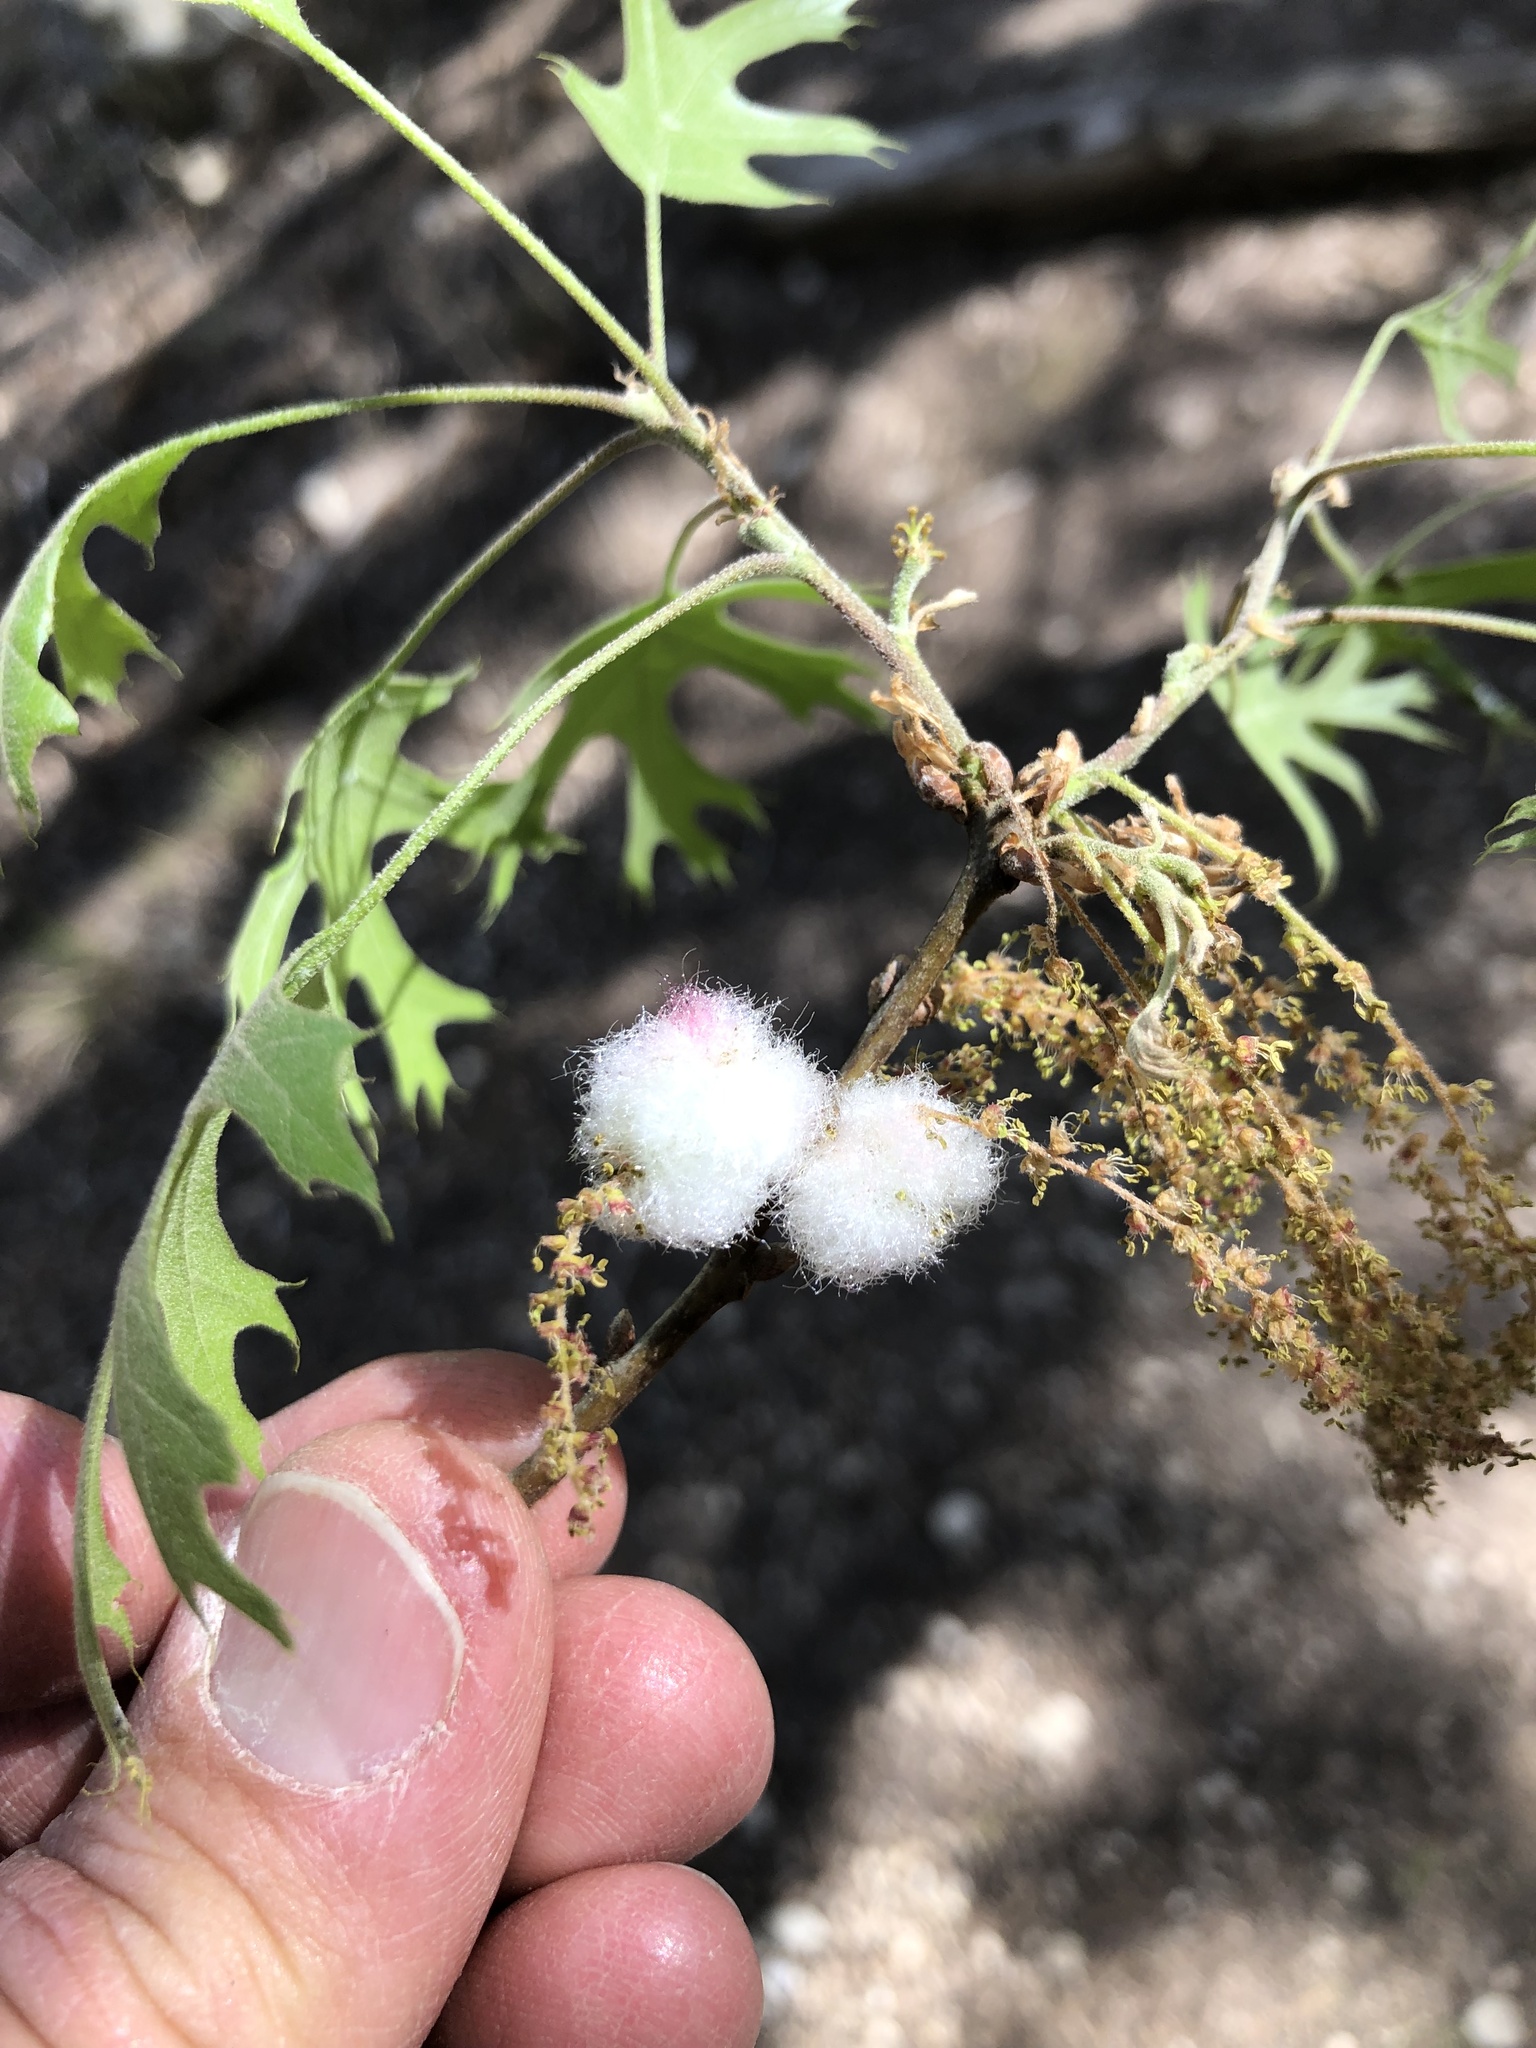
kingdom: Animalia
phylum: Arthropoda
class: Insecta
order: Hymenoptera
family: Cynipidae
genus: Callirhytis
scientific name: Callirhytis
